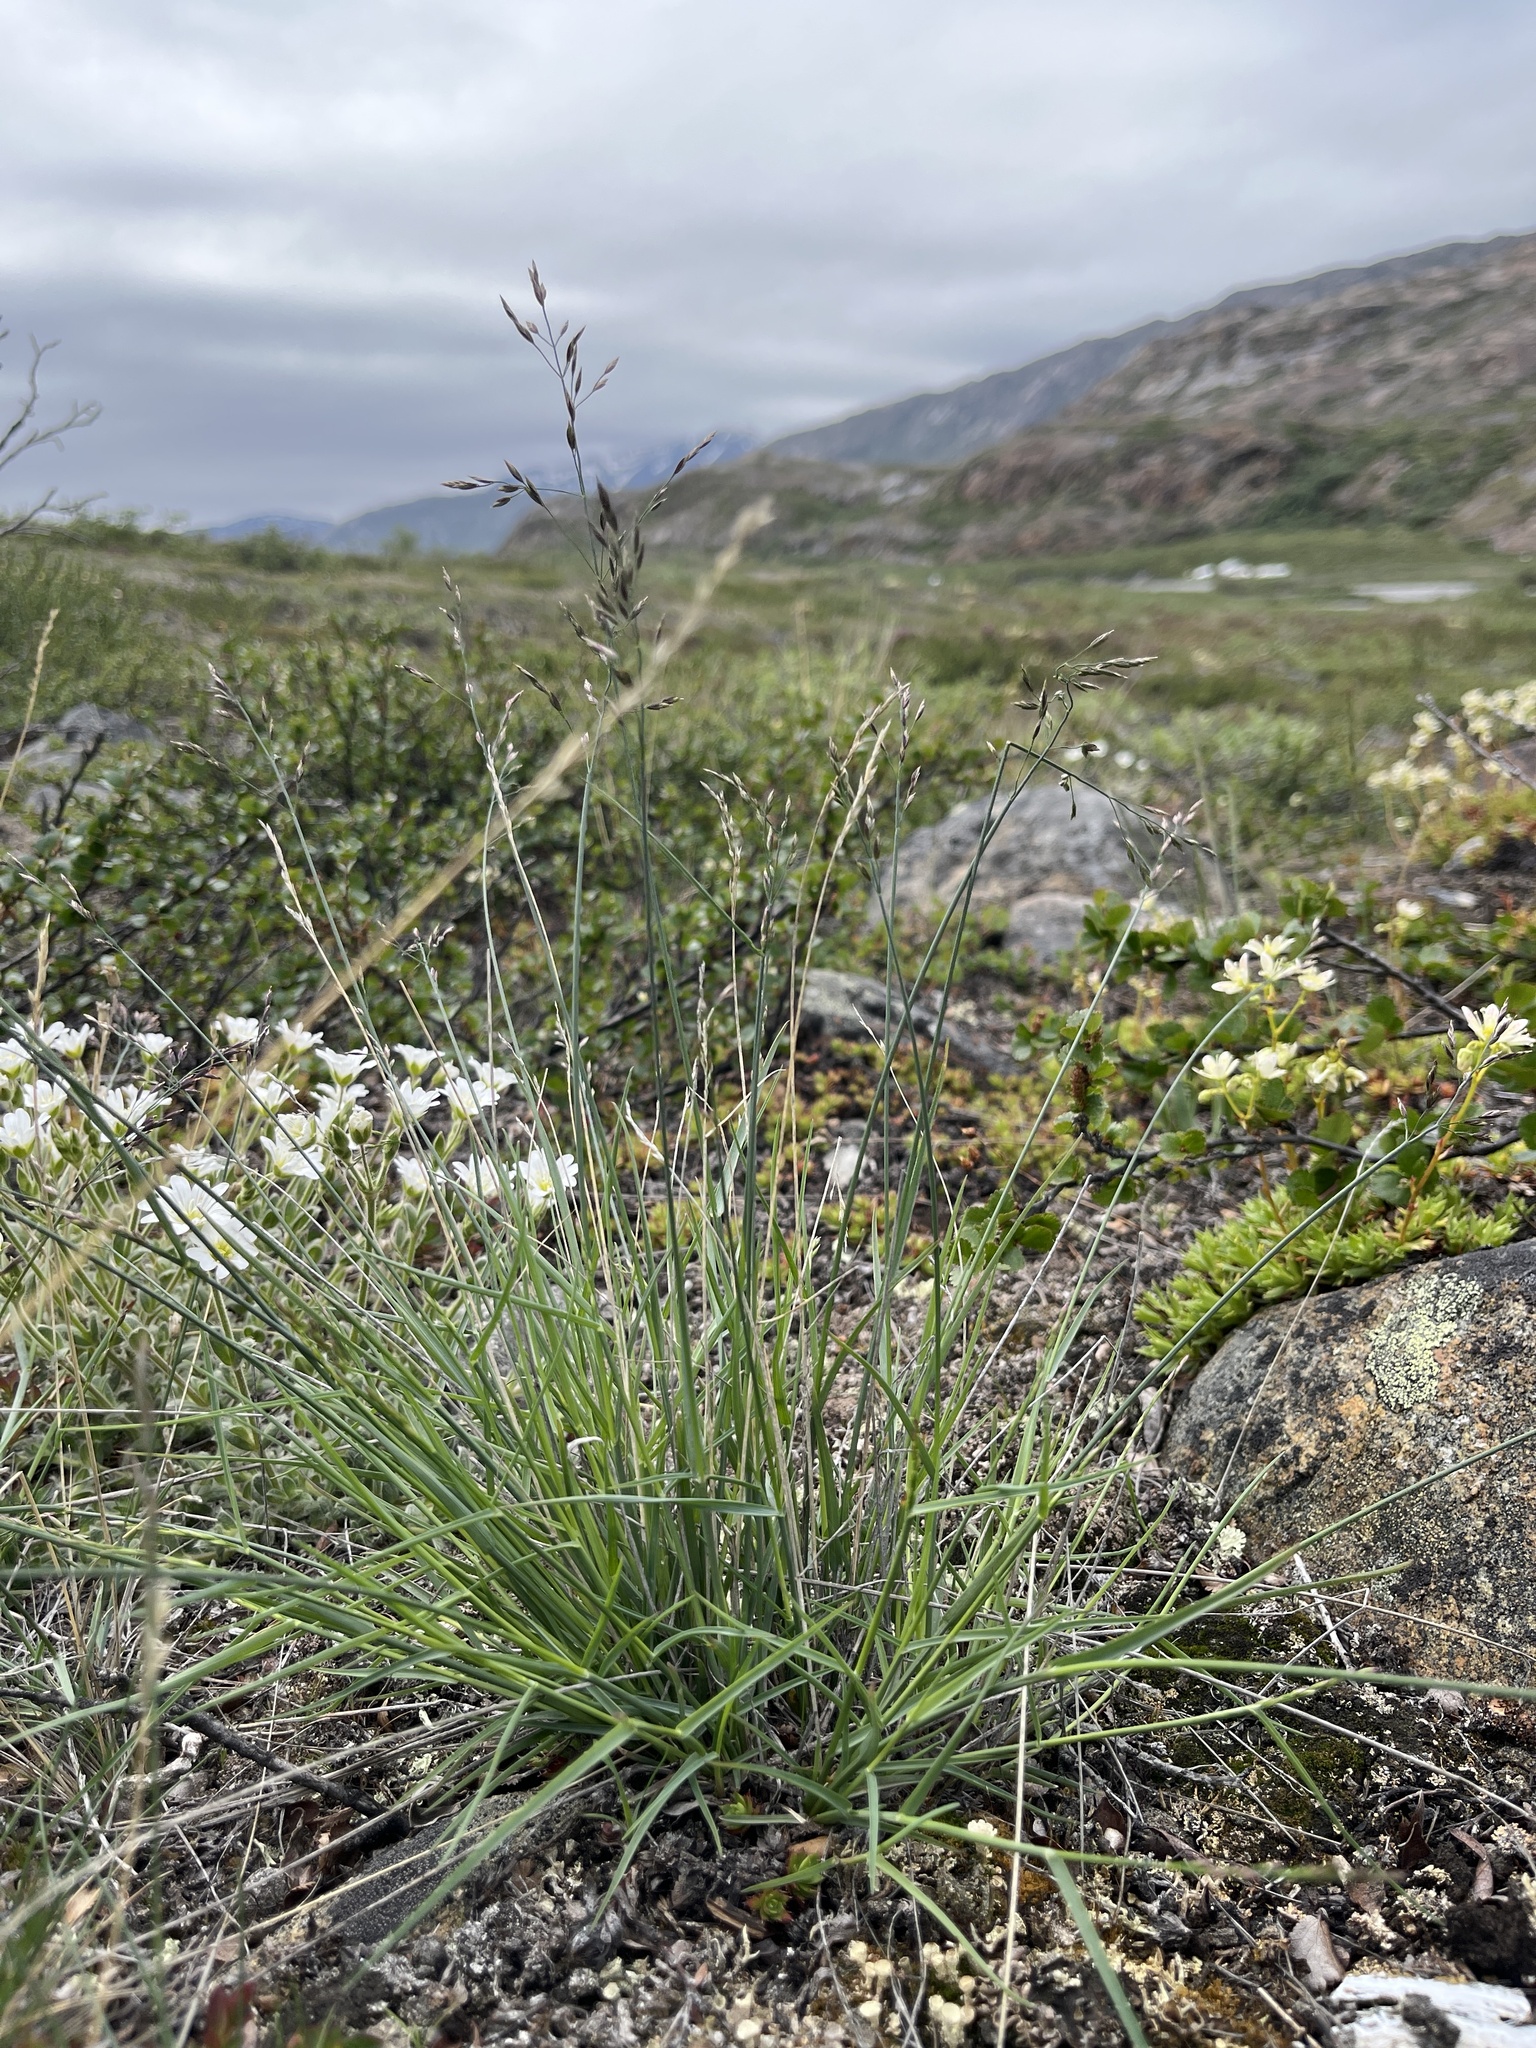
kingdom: Plantae
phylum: Tracheophyta
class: Liliopsida
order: Poales
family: Poaceae
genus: Poa
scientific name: Poa glauca
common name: Glaucous bluegrass
